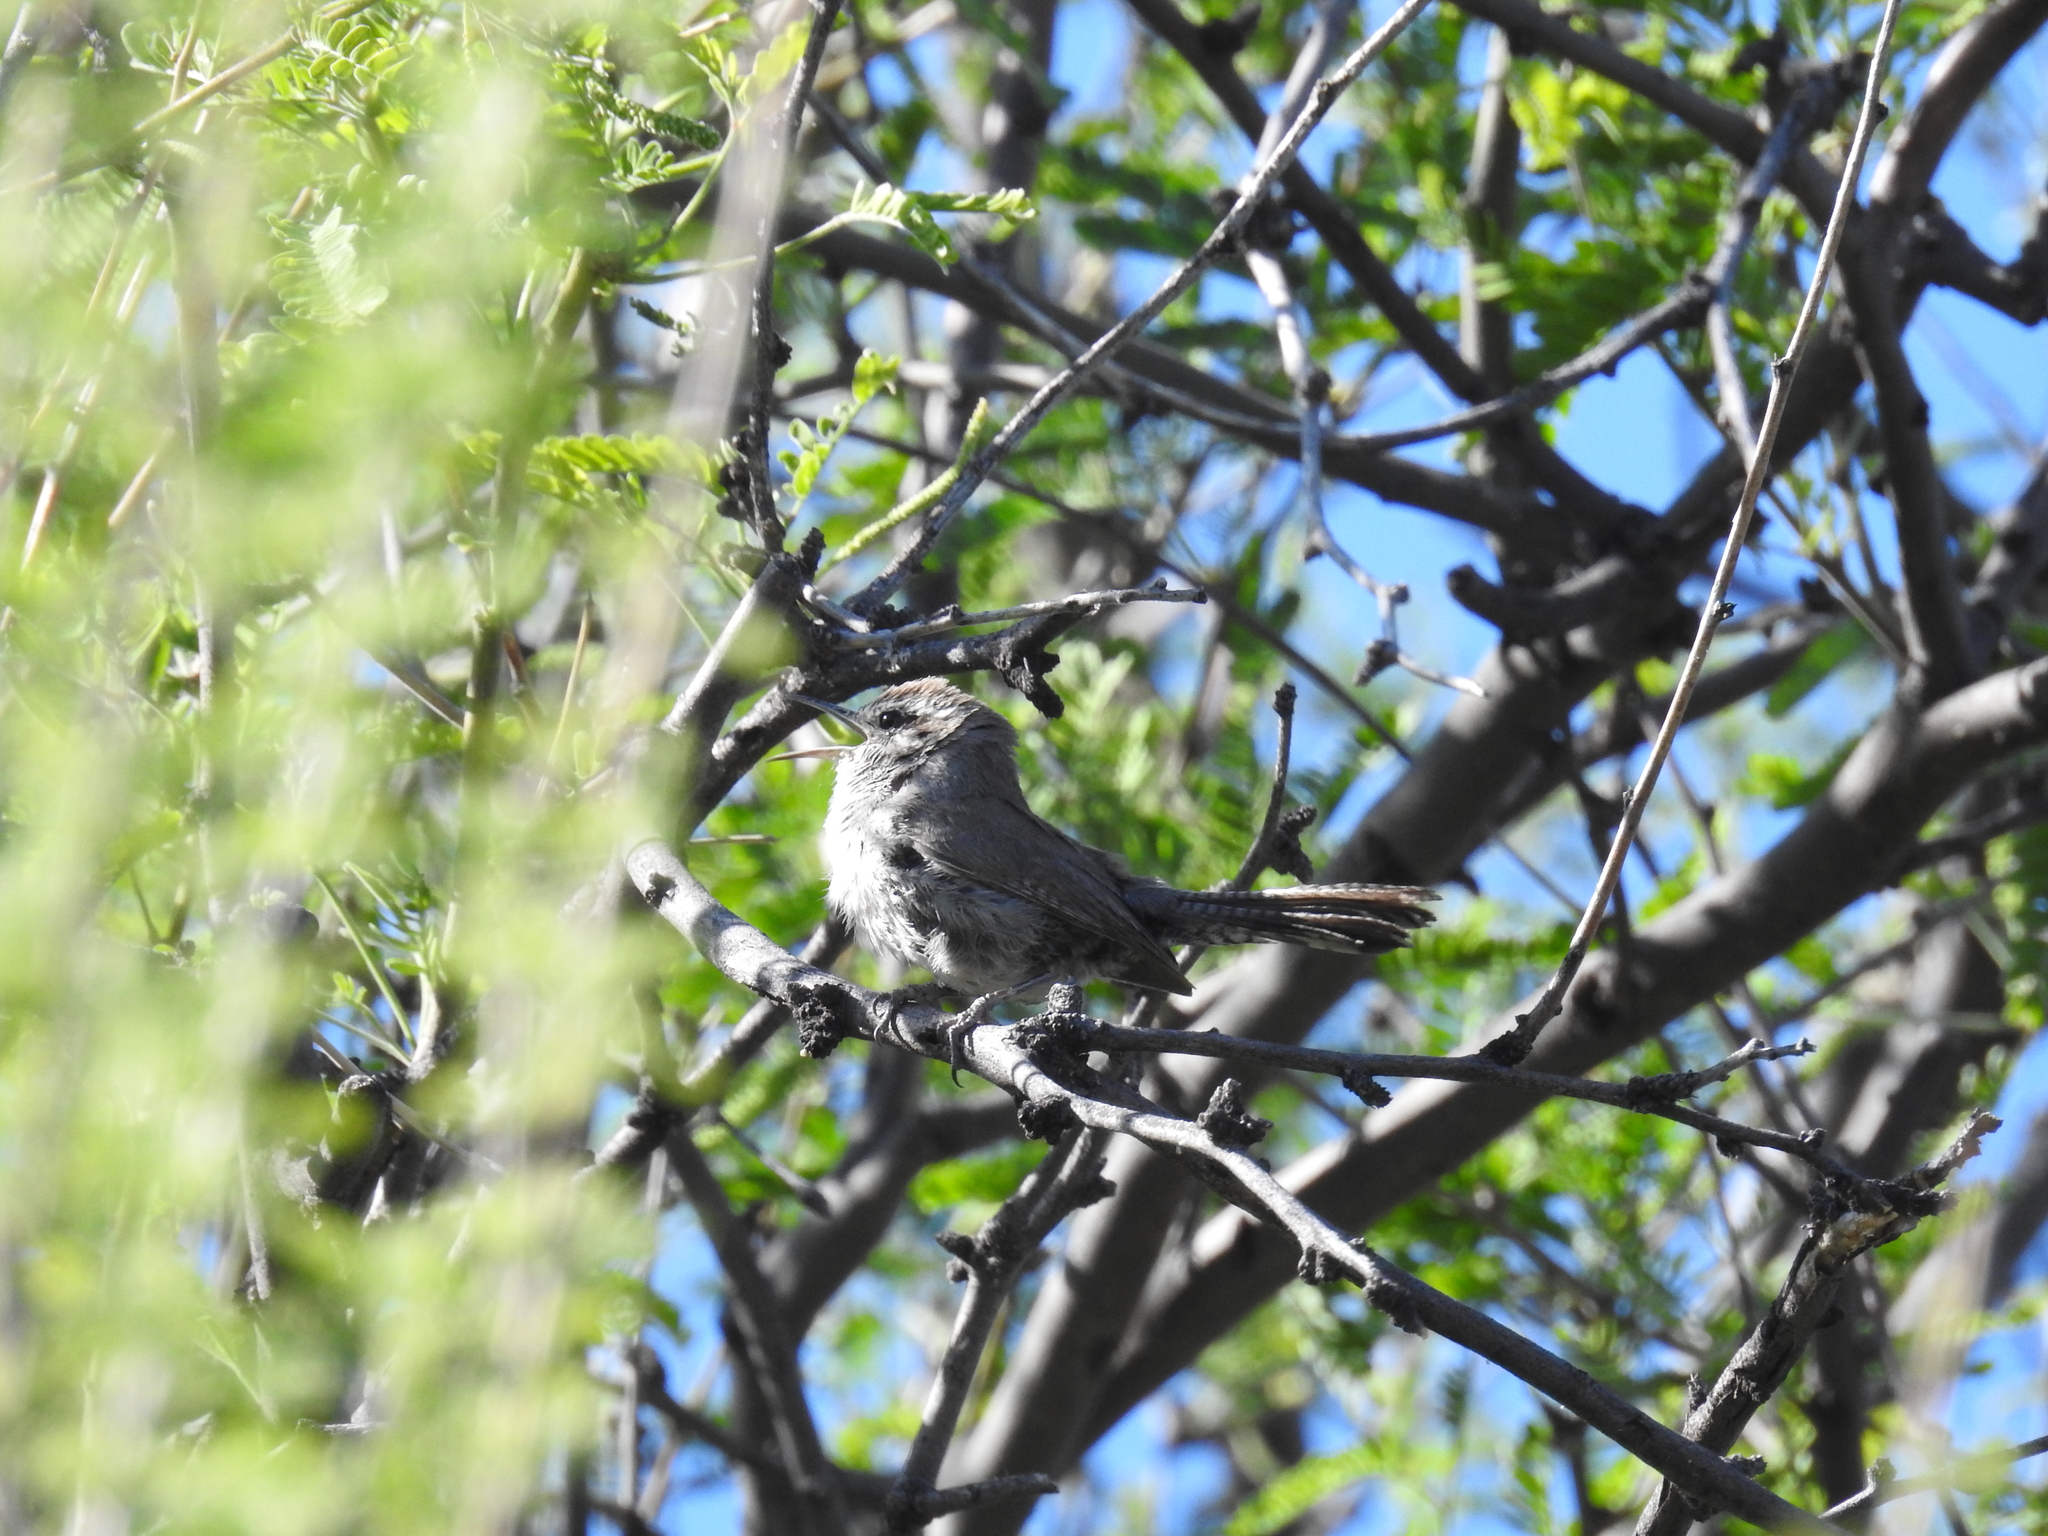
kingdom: Animalia
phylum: Chordata
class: Aves
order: Passeriformes
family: Troglodytidae
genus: Thryomanes
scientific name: Thryomanes bewickii
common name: Bewick's wren
